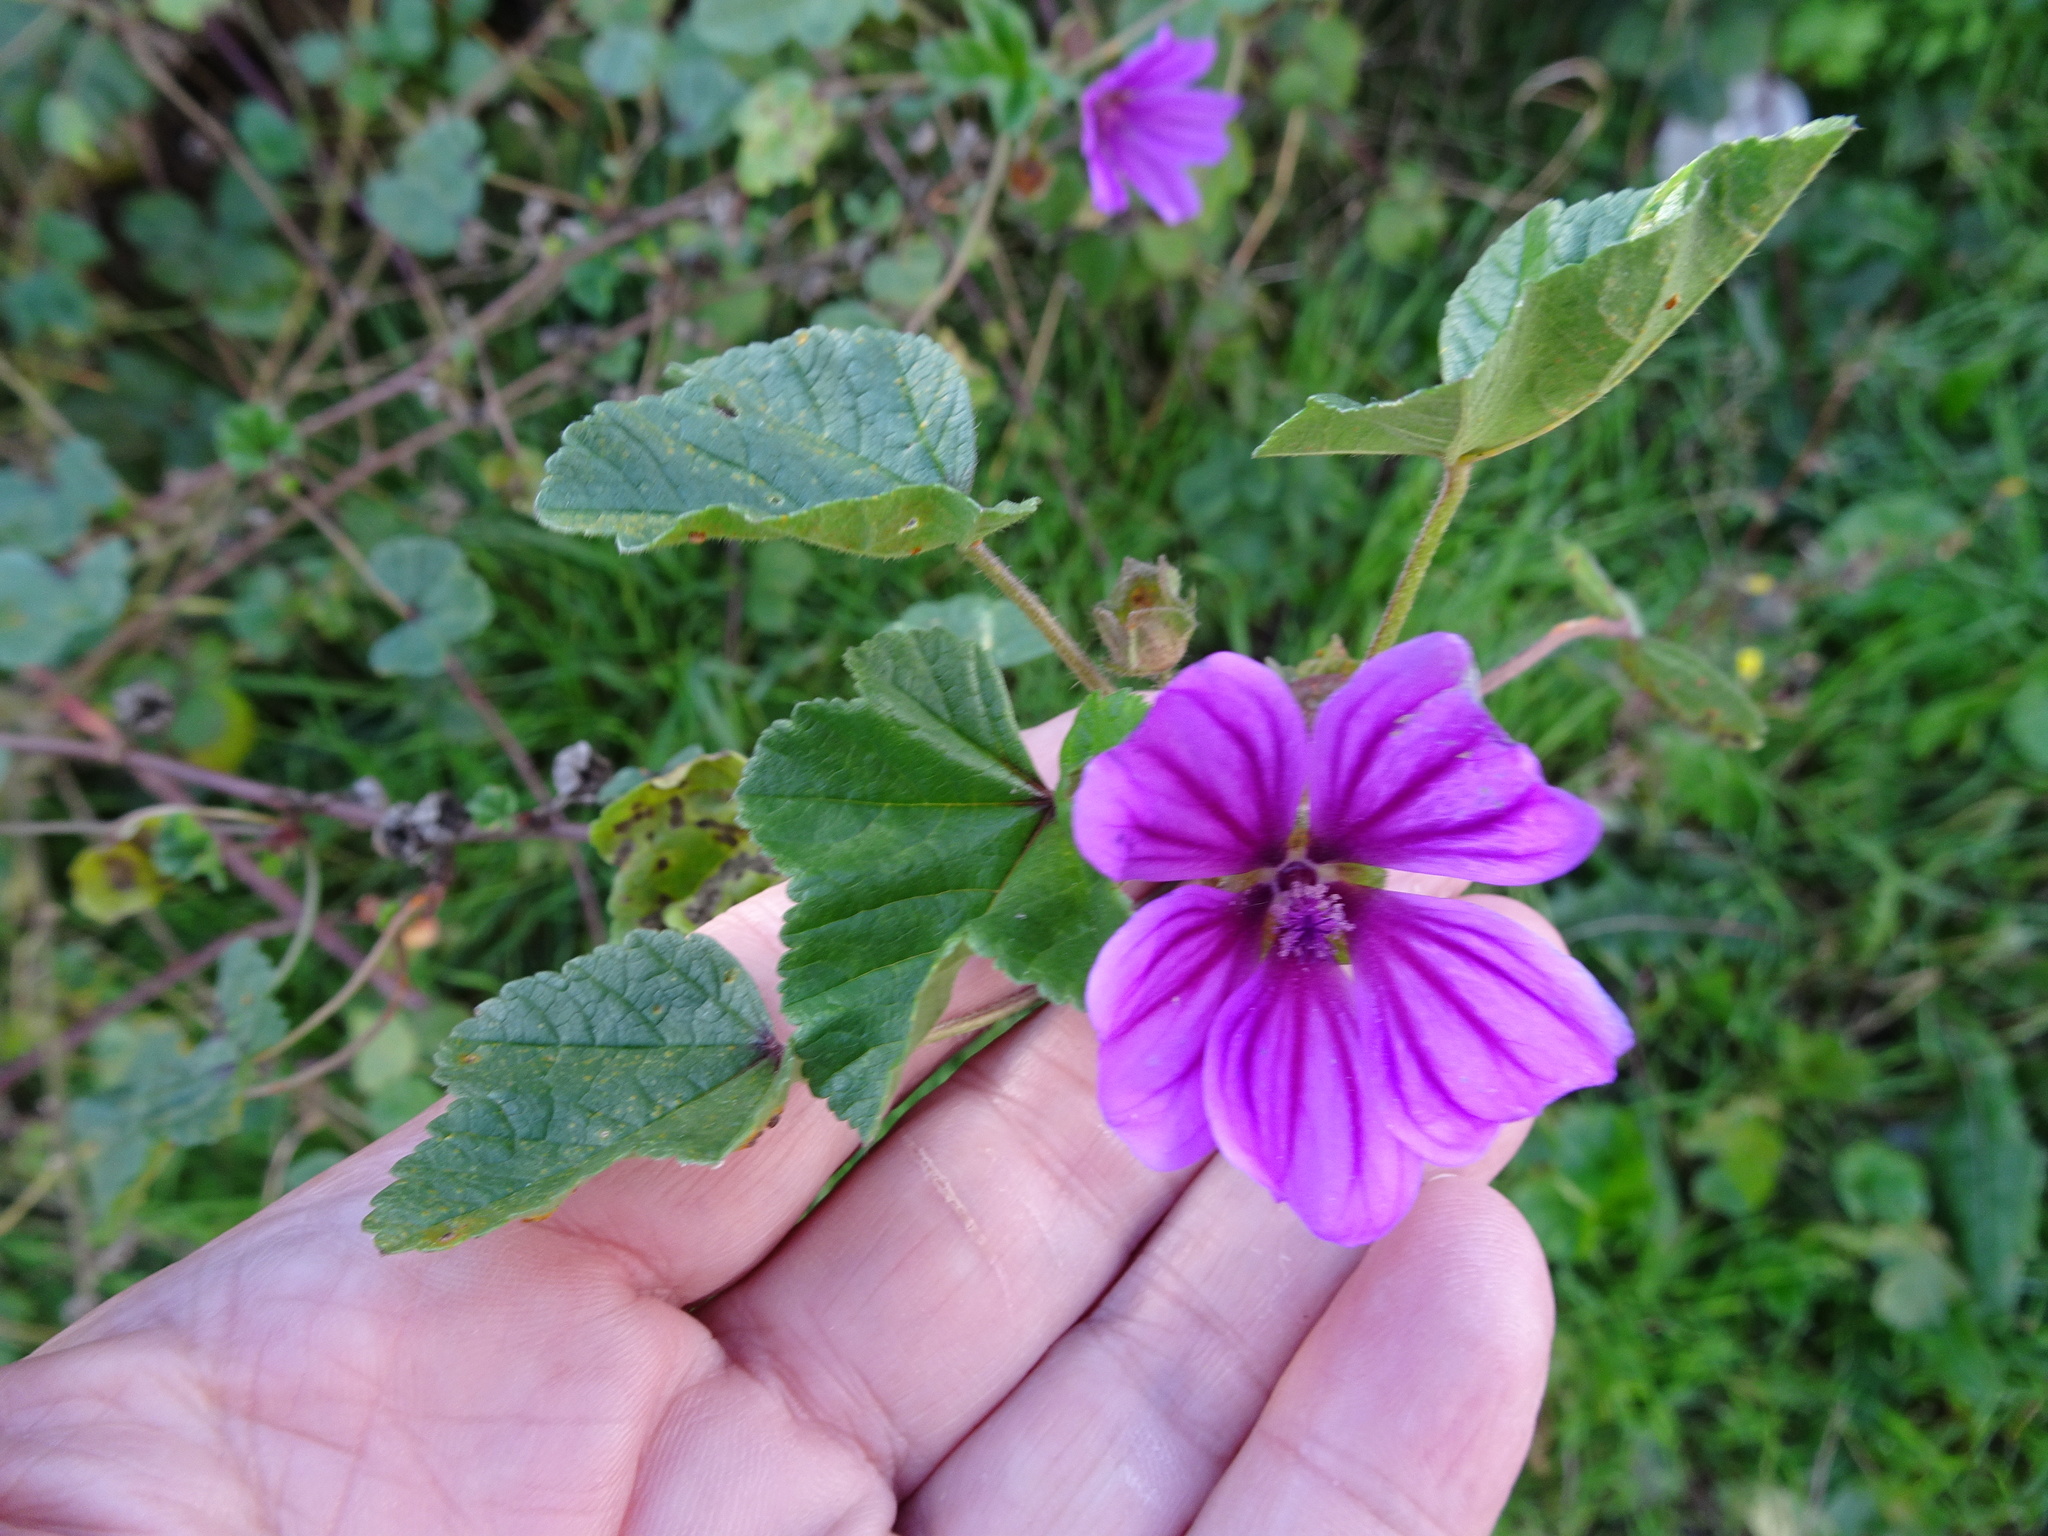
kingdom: Plantae
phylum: Tracheophyta
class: Magnoliopsida
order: Malvales
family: Malvaceae
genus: Malva
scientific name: Malva sylvestris
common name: Common mallow
